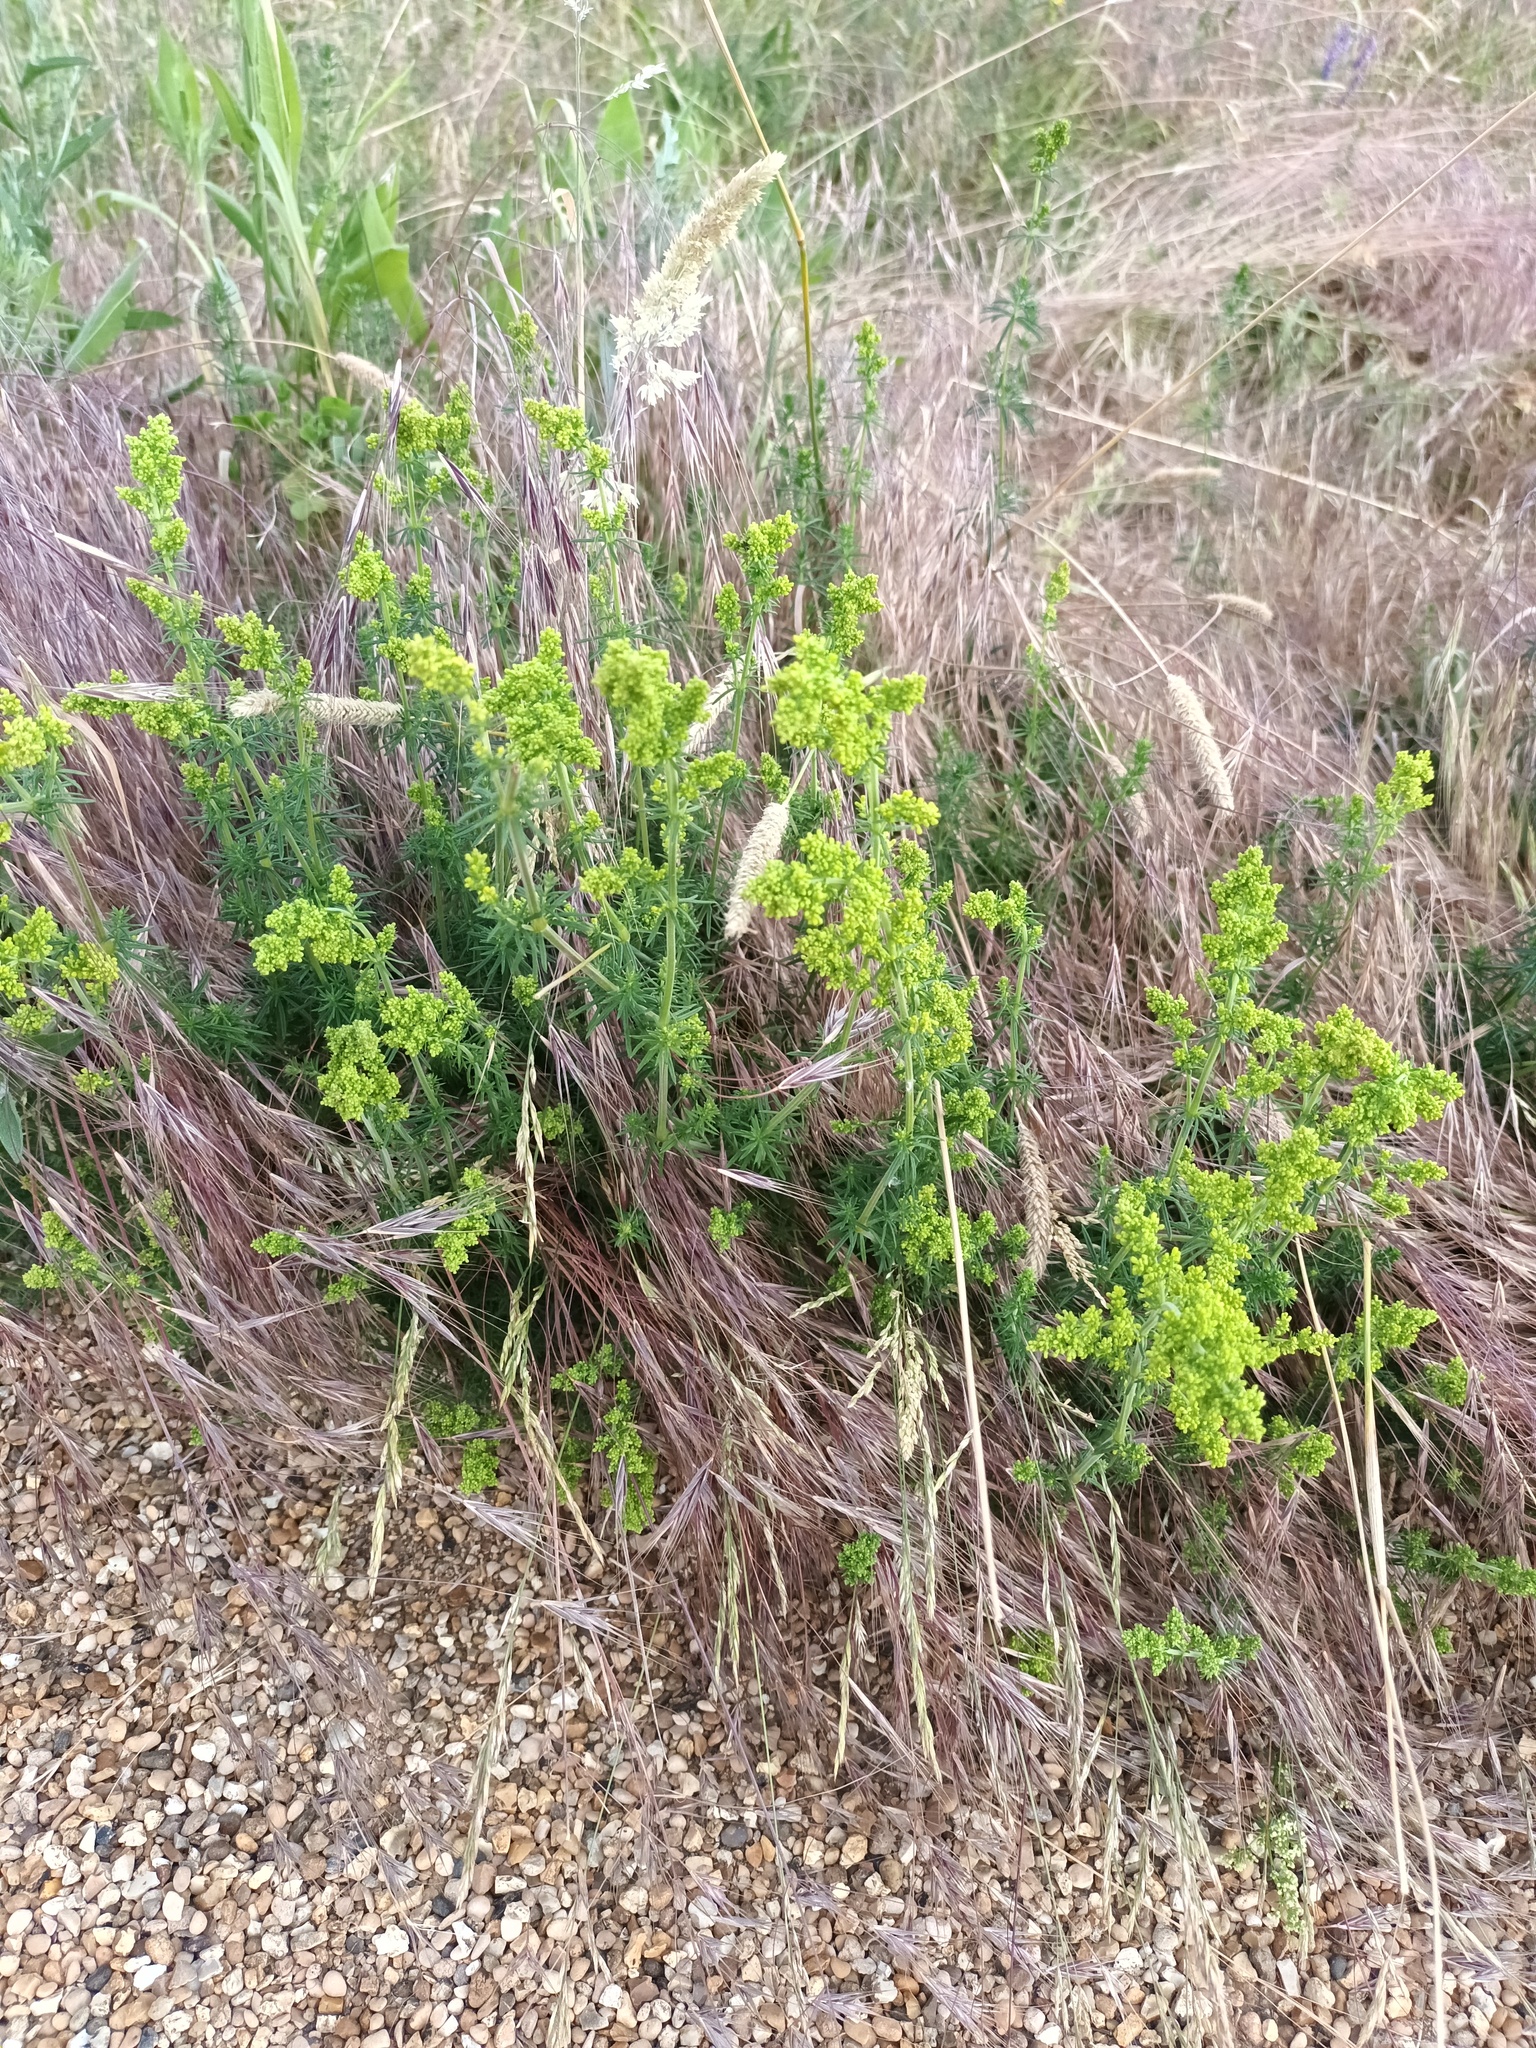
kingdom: Plantae
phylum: Tracheophyta
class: Magnoliopsida
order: Gentianales
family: Rubiaceae
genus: Galium
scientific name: Galium verum
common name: Lady's bedstraw
